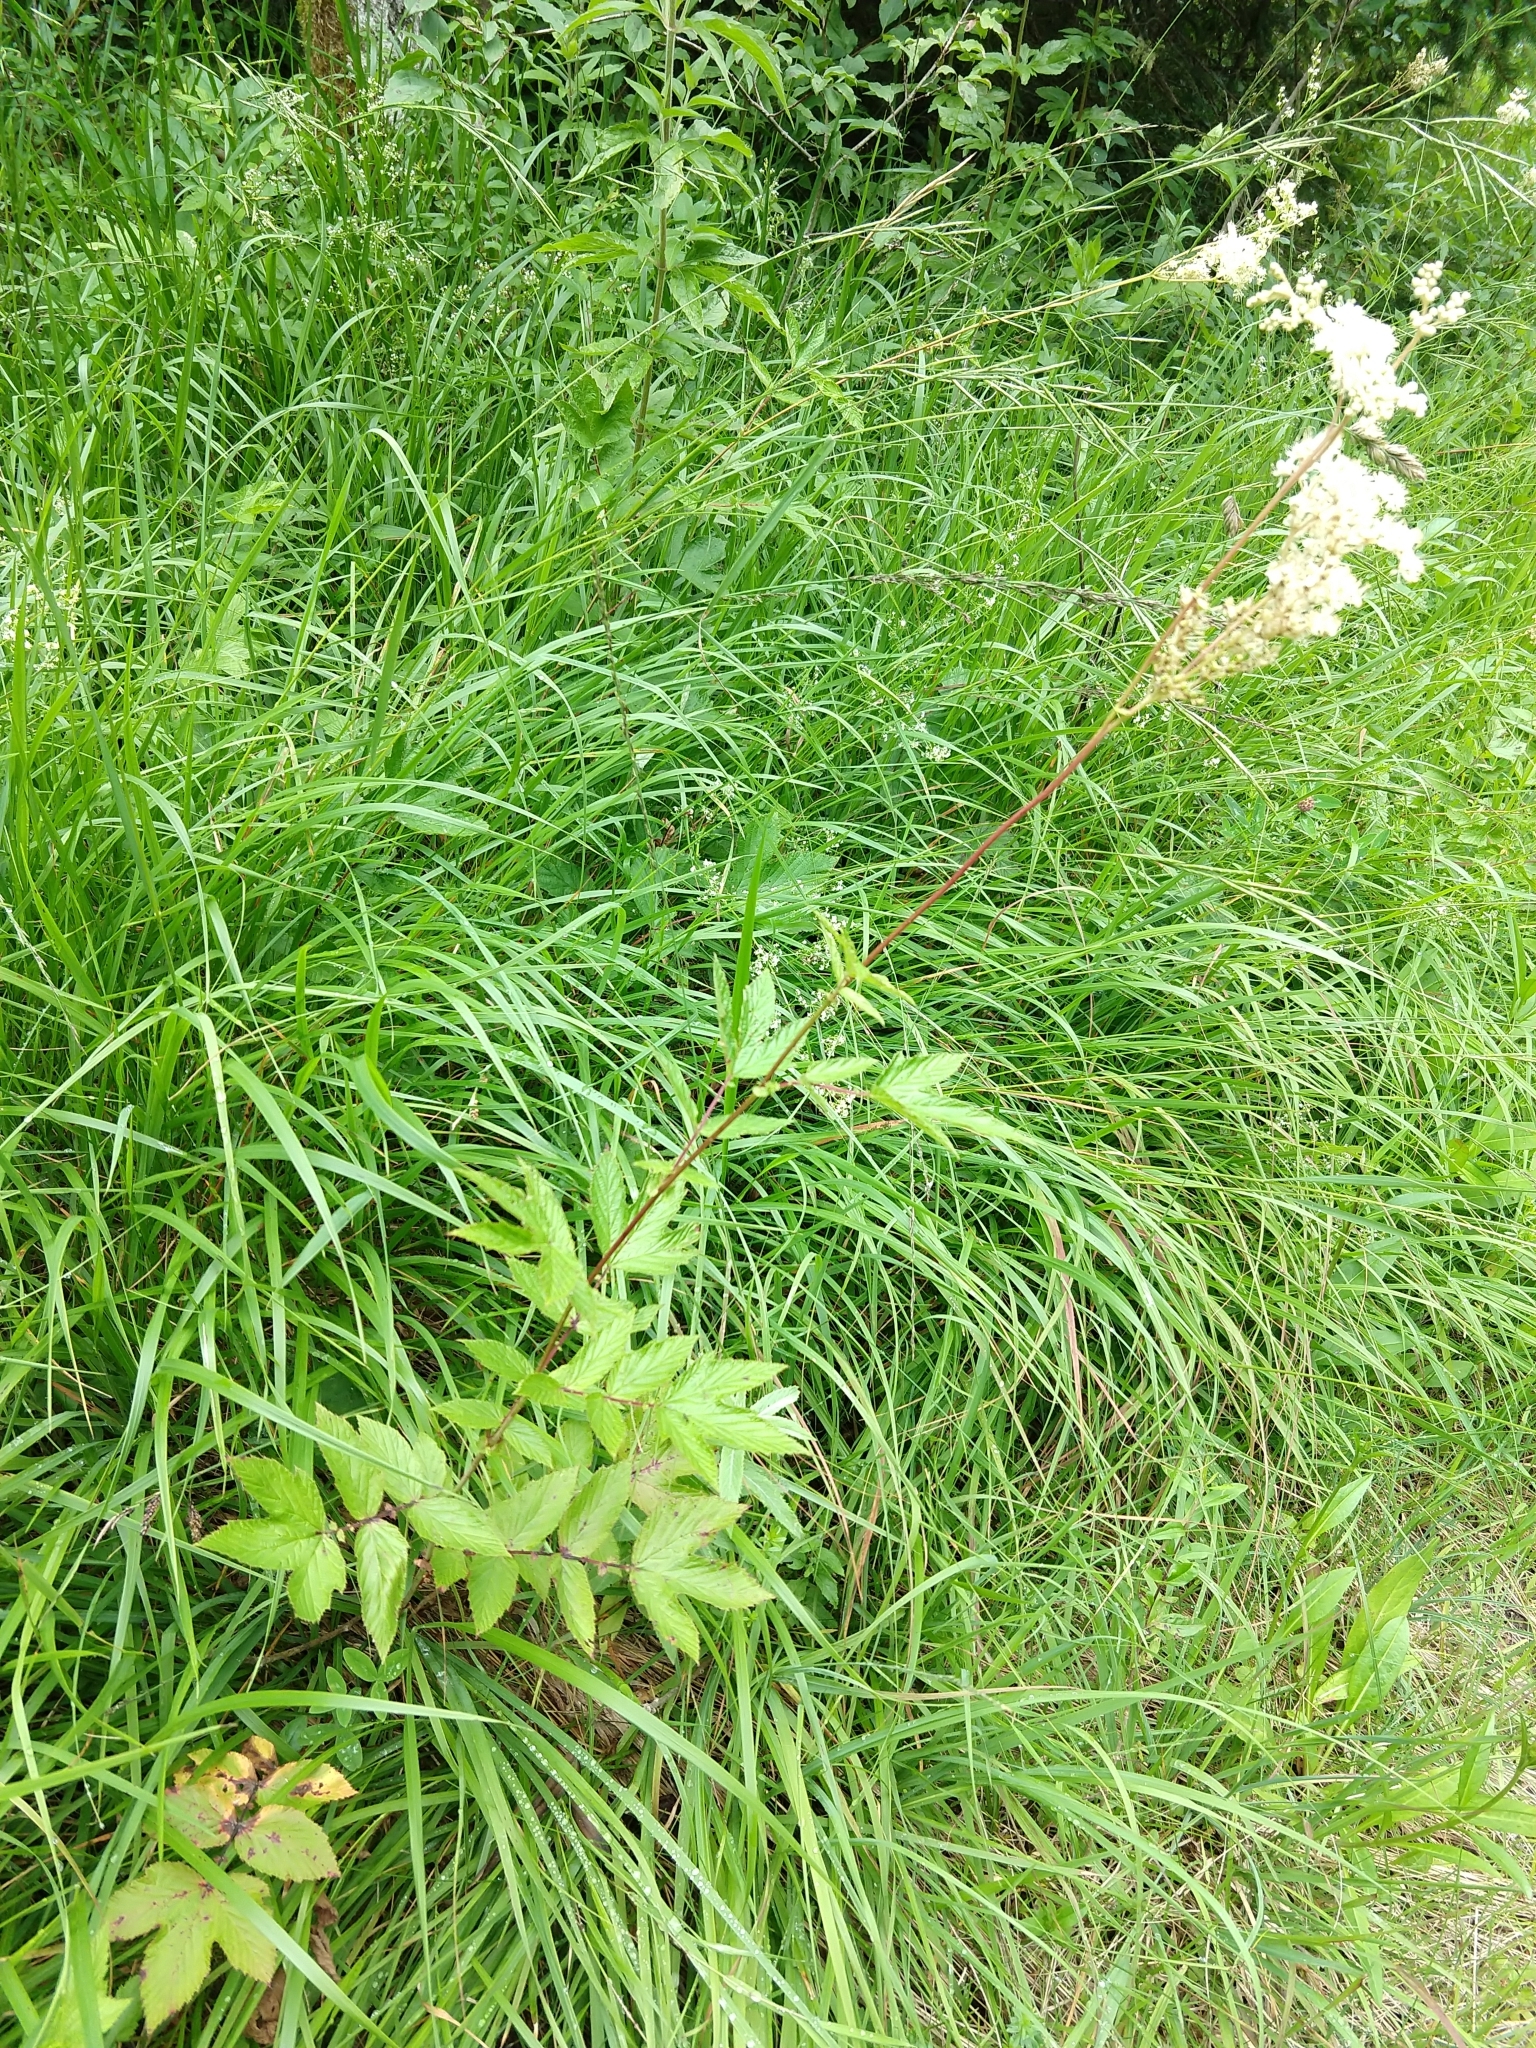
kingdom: Plantae
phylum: Tracheophyta
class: Magnoliopsida
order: Rosales
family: Rosaceae
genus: Filipendula
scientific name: Filipendula ulmaria
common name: Meadowsweet
